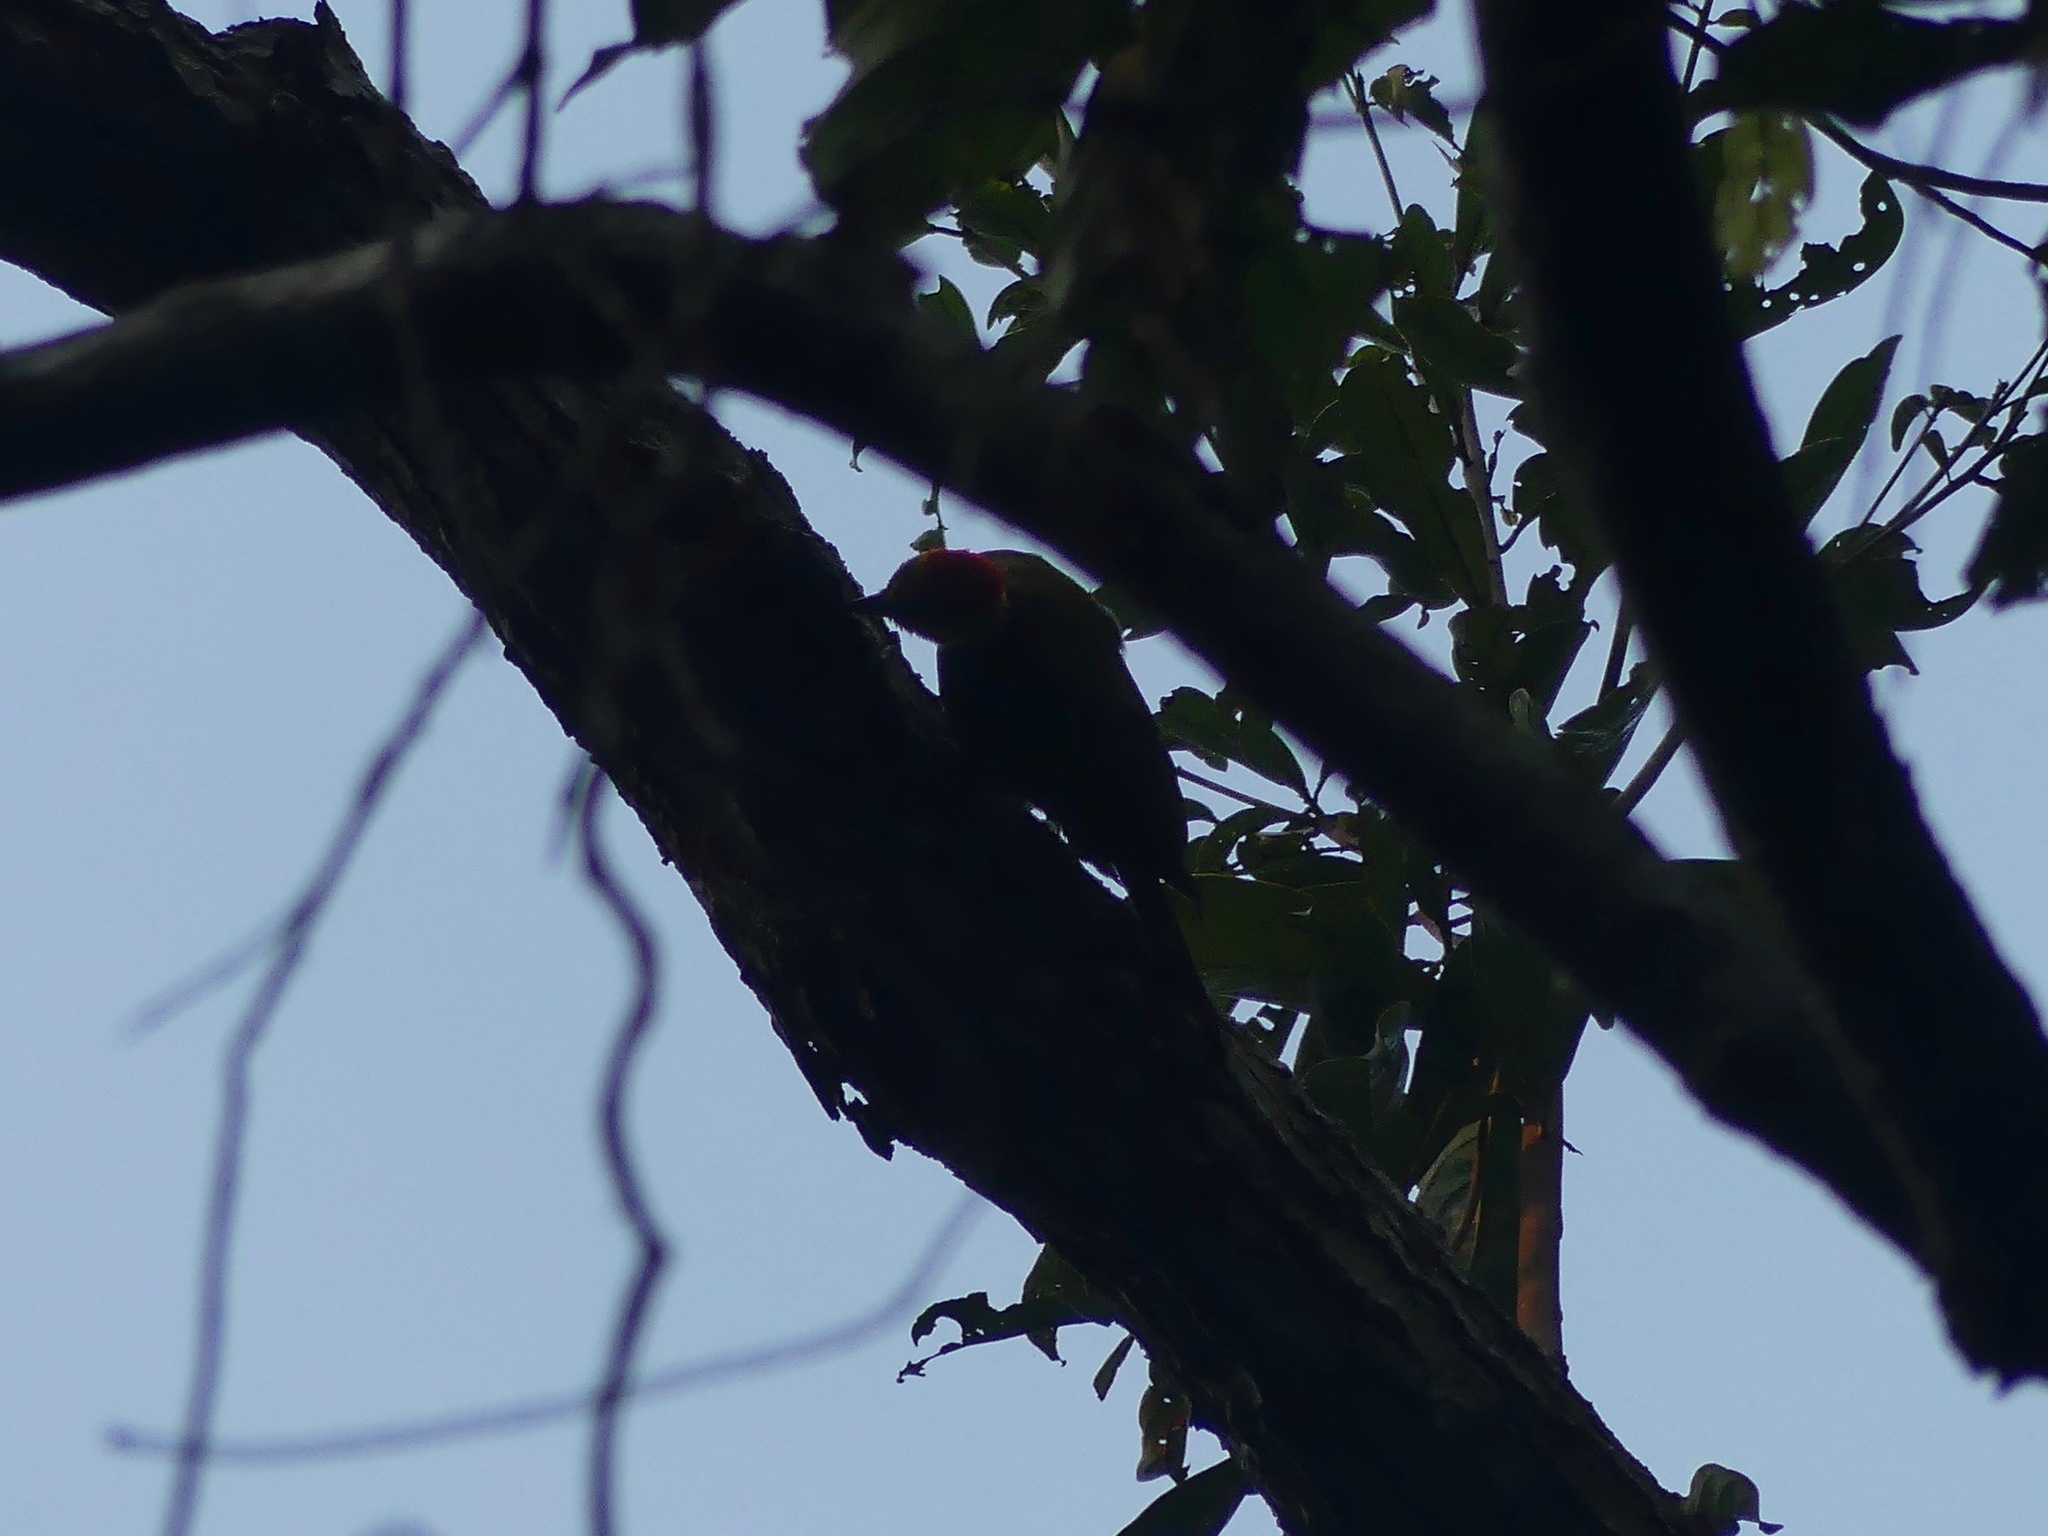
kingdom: Animalia
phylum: Chordata
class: Aves
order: Piciformes
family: Picidae
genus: Piculus
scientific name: Piculus flavigula
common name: Yellow-throated woodpecker
